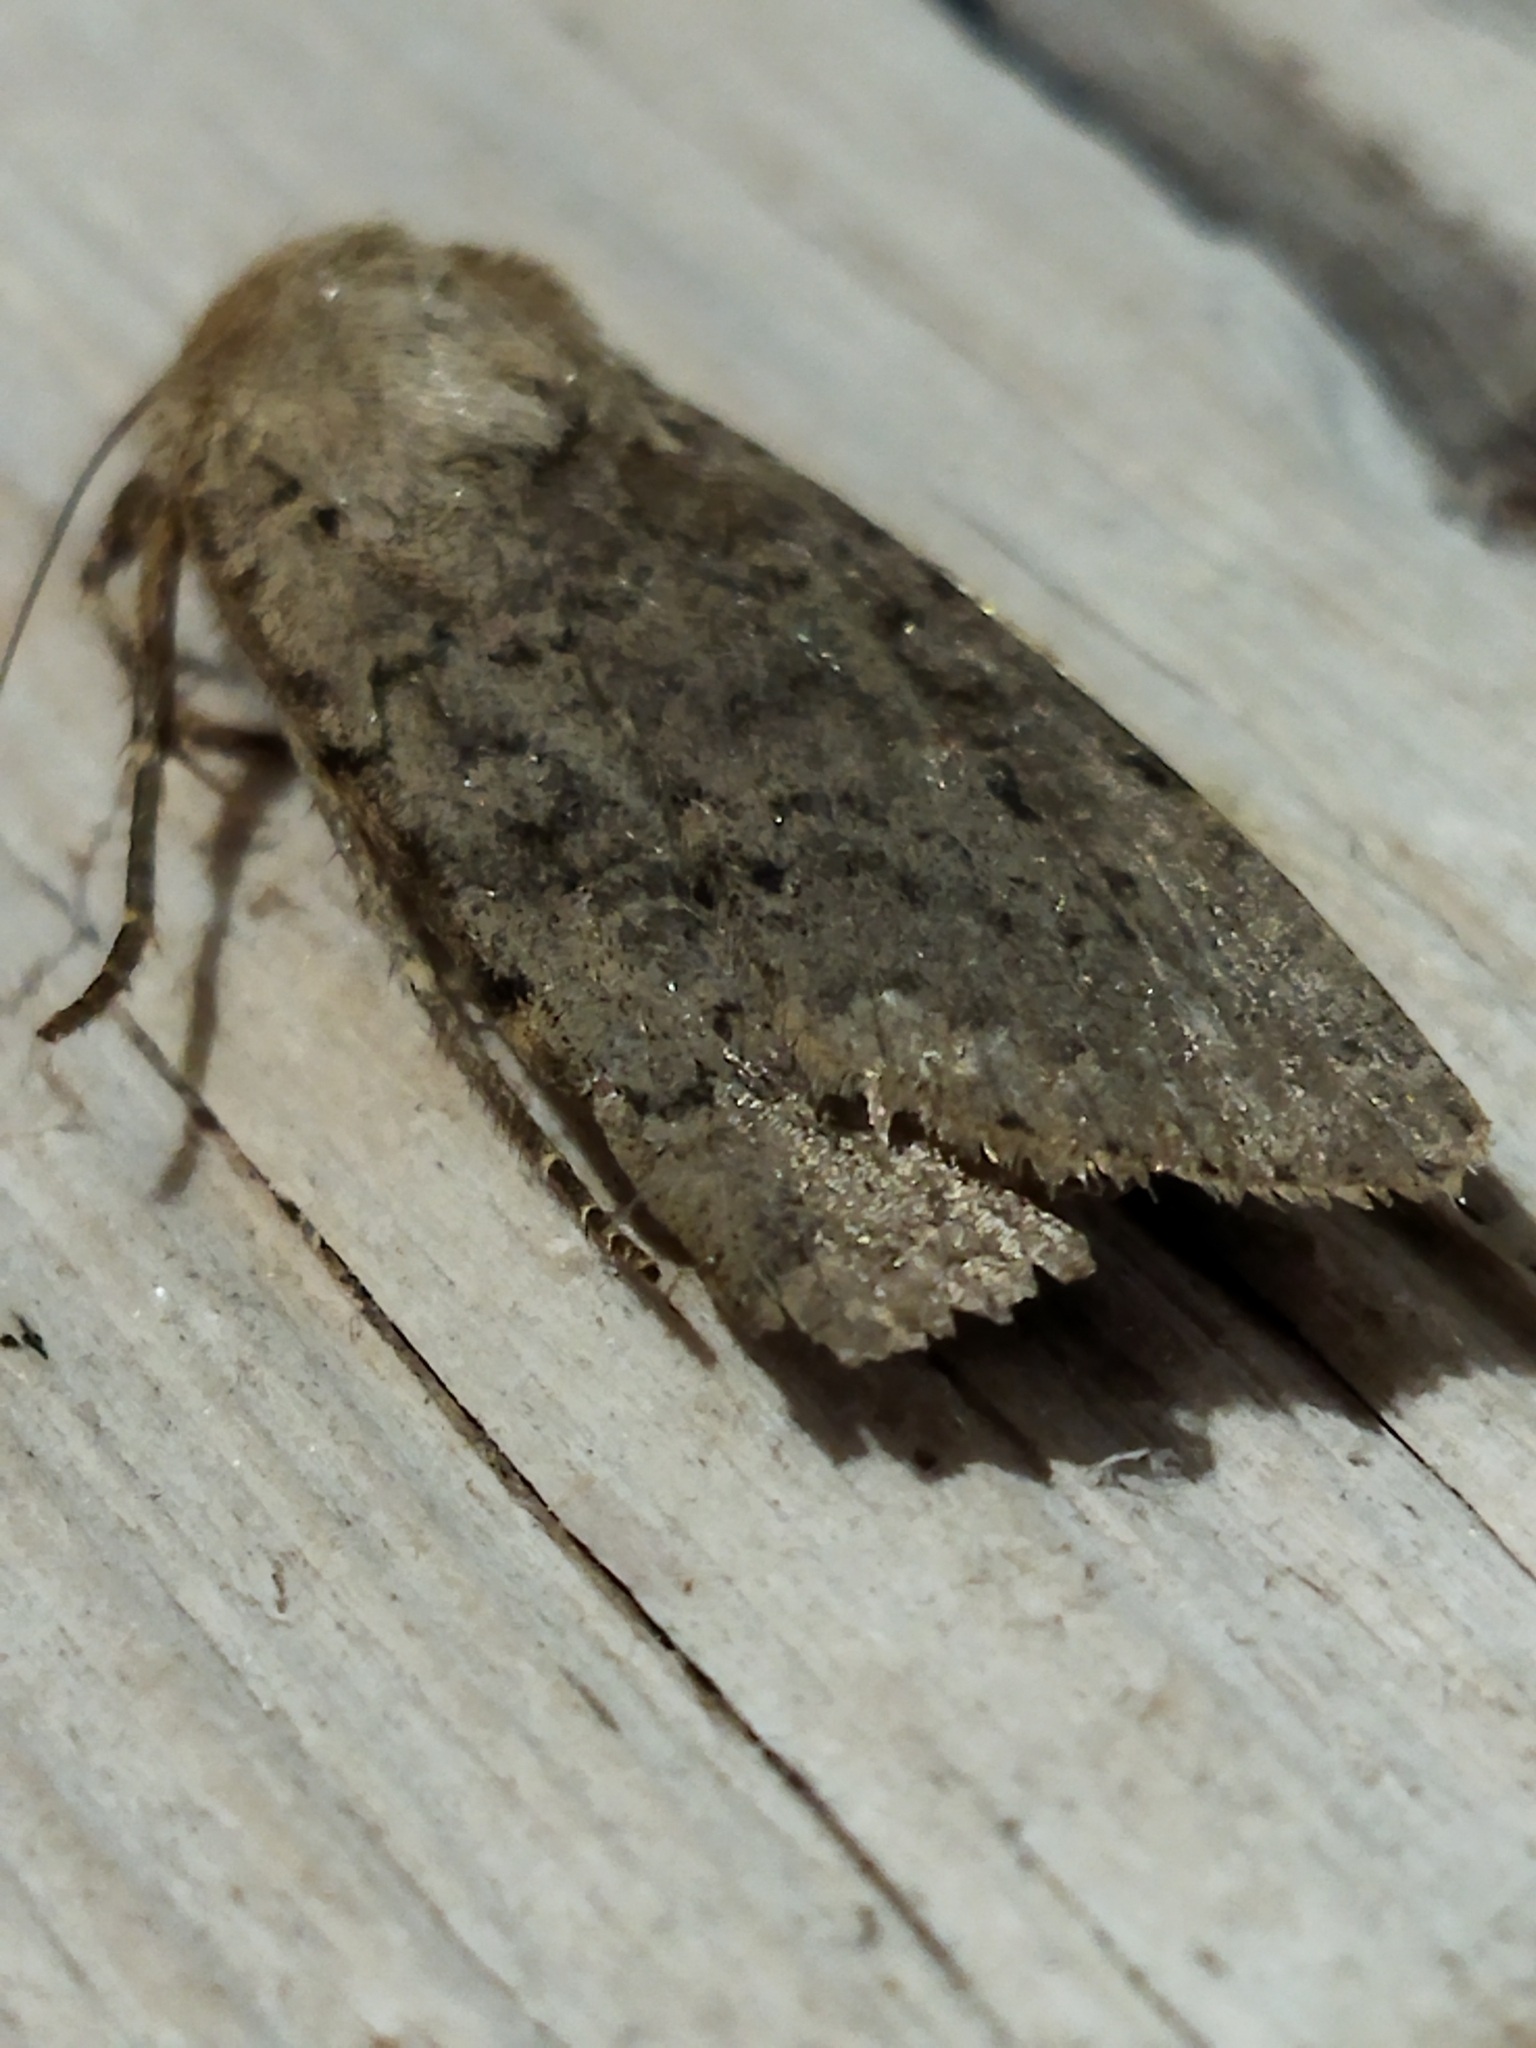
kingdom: Animalia
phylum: Arthropoda
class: Insecta
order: Lepidoptera
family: Noctuidae
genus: Rhyacia
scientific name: Rhyacia arenacea
